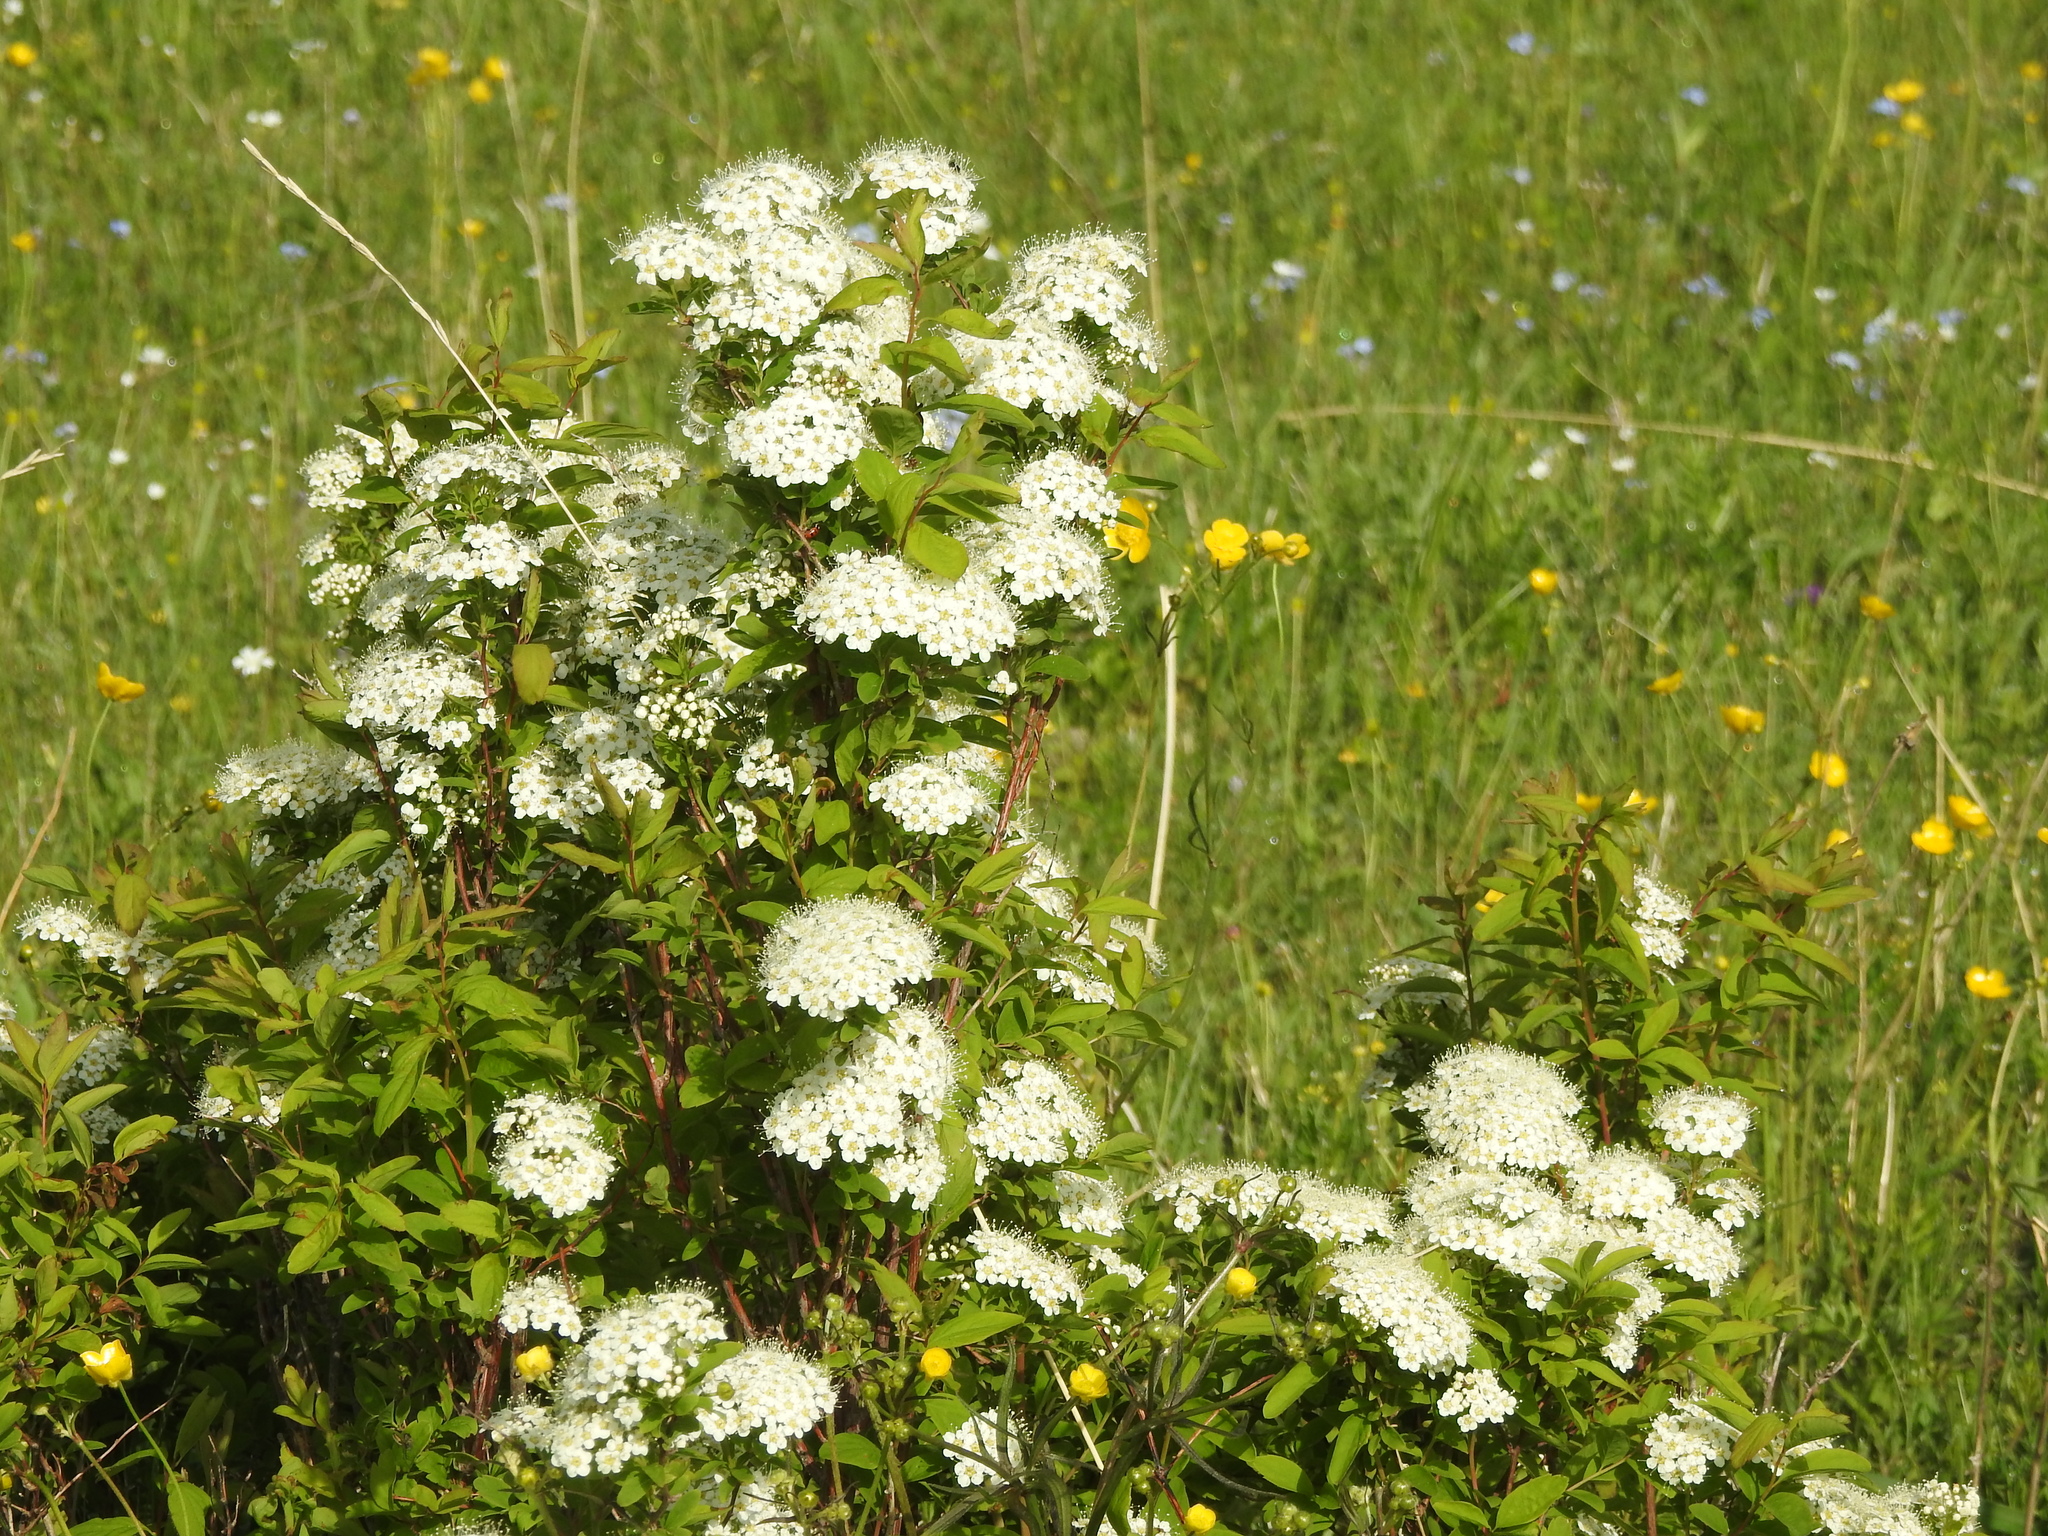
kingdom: Plantae
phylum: Tracheophyta
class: Magnoliopsida
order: Rosales
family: Rosaceae
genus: Spiraea
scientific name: Spiraea media
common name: Russian spiraea
